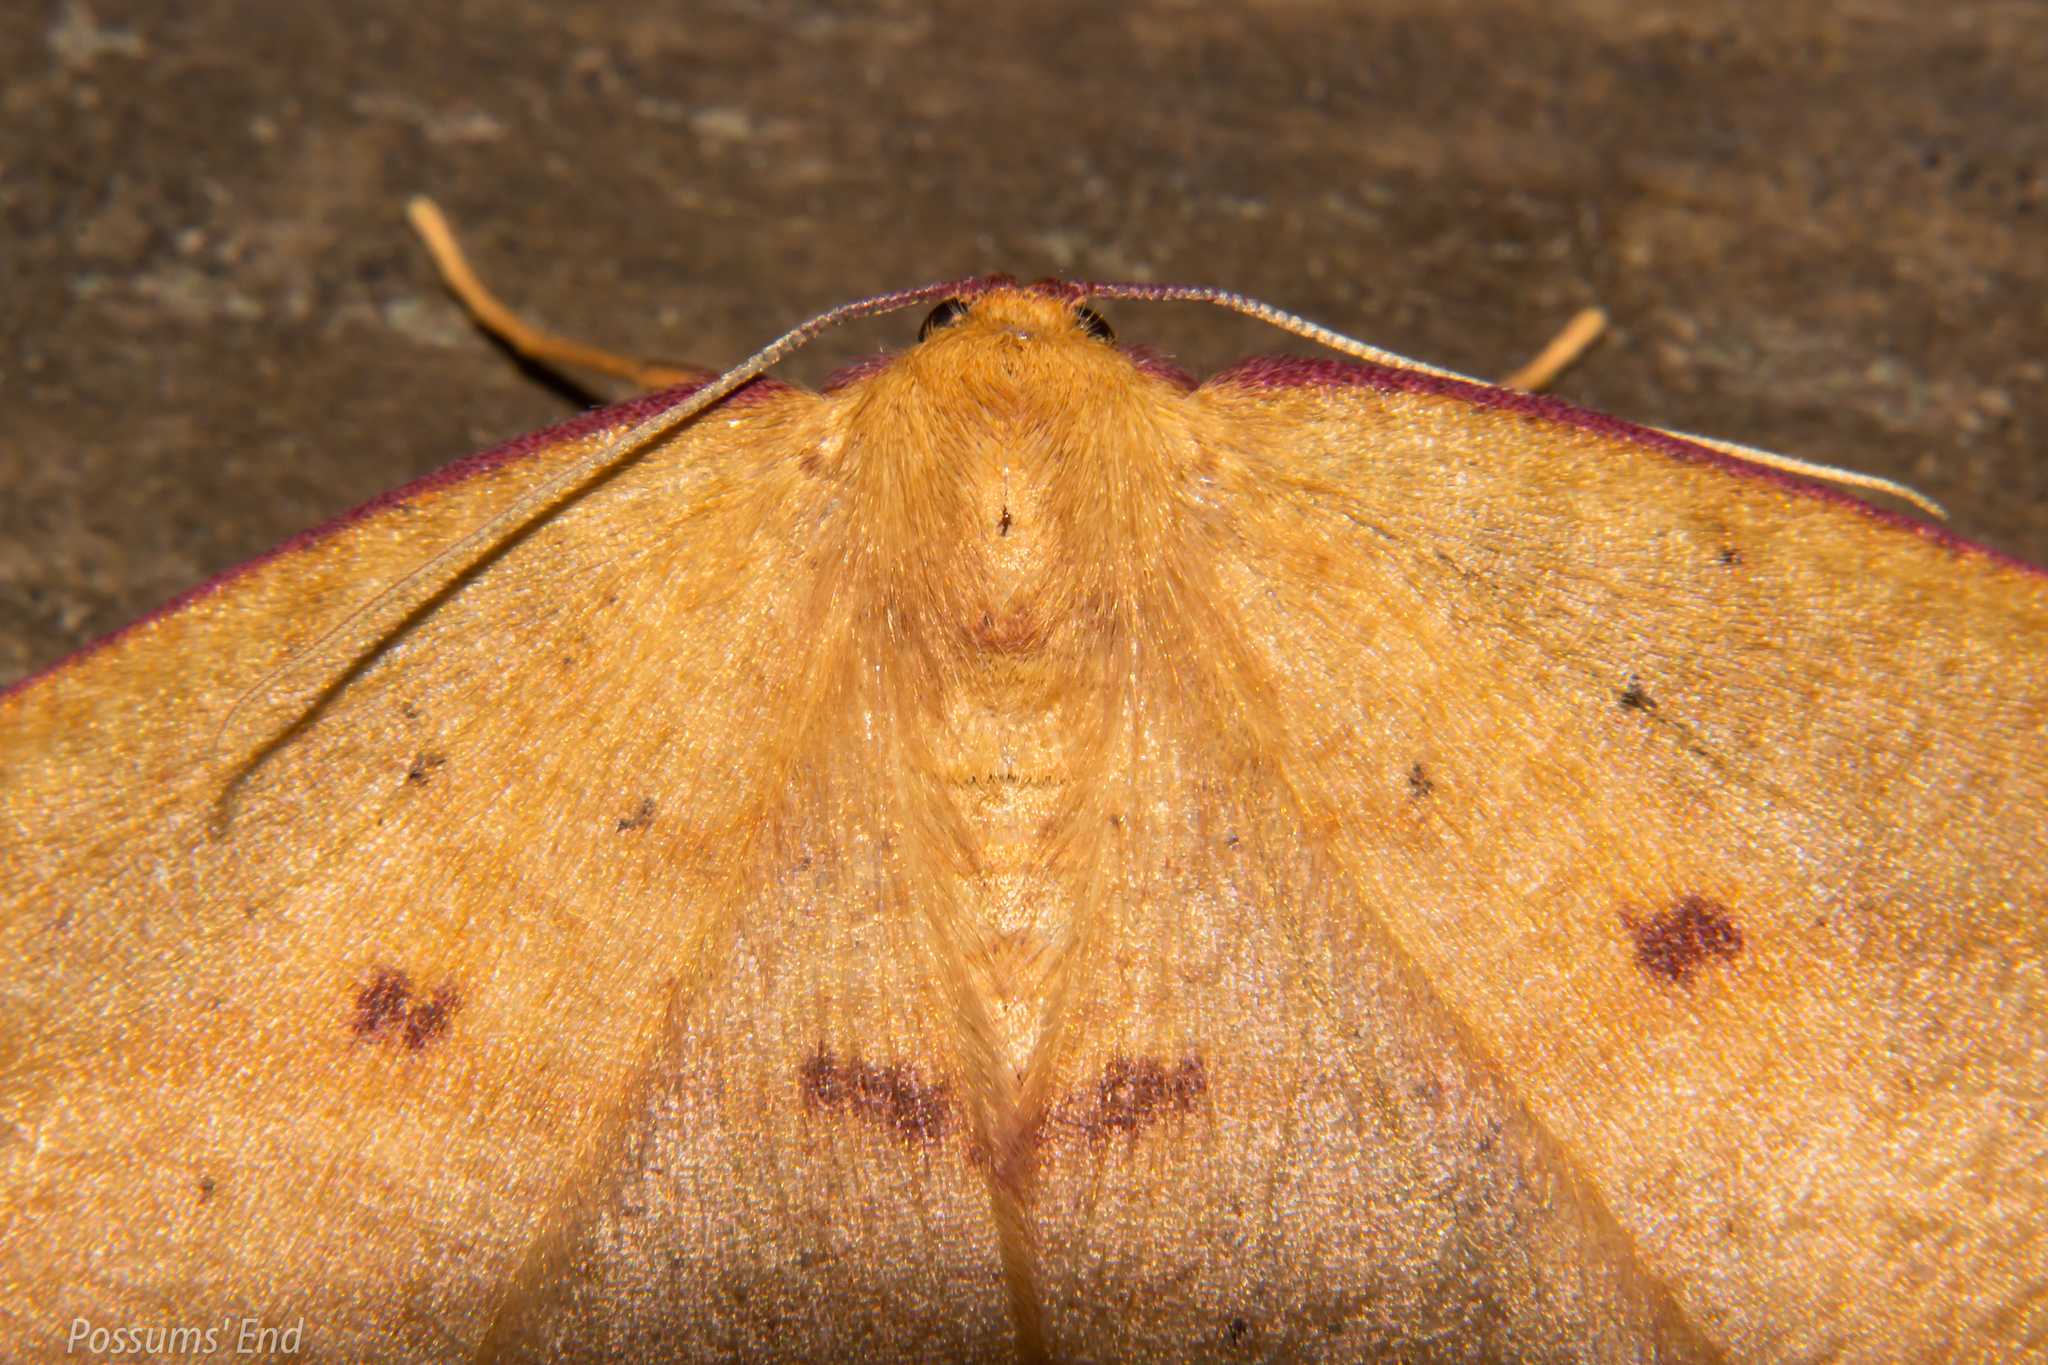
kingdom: Animalia
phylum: Arthropoda
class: Insecta
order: Lepidoptera
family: Geometridae
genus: Xyridacma
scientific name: Xyridacma alectoraria
